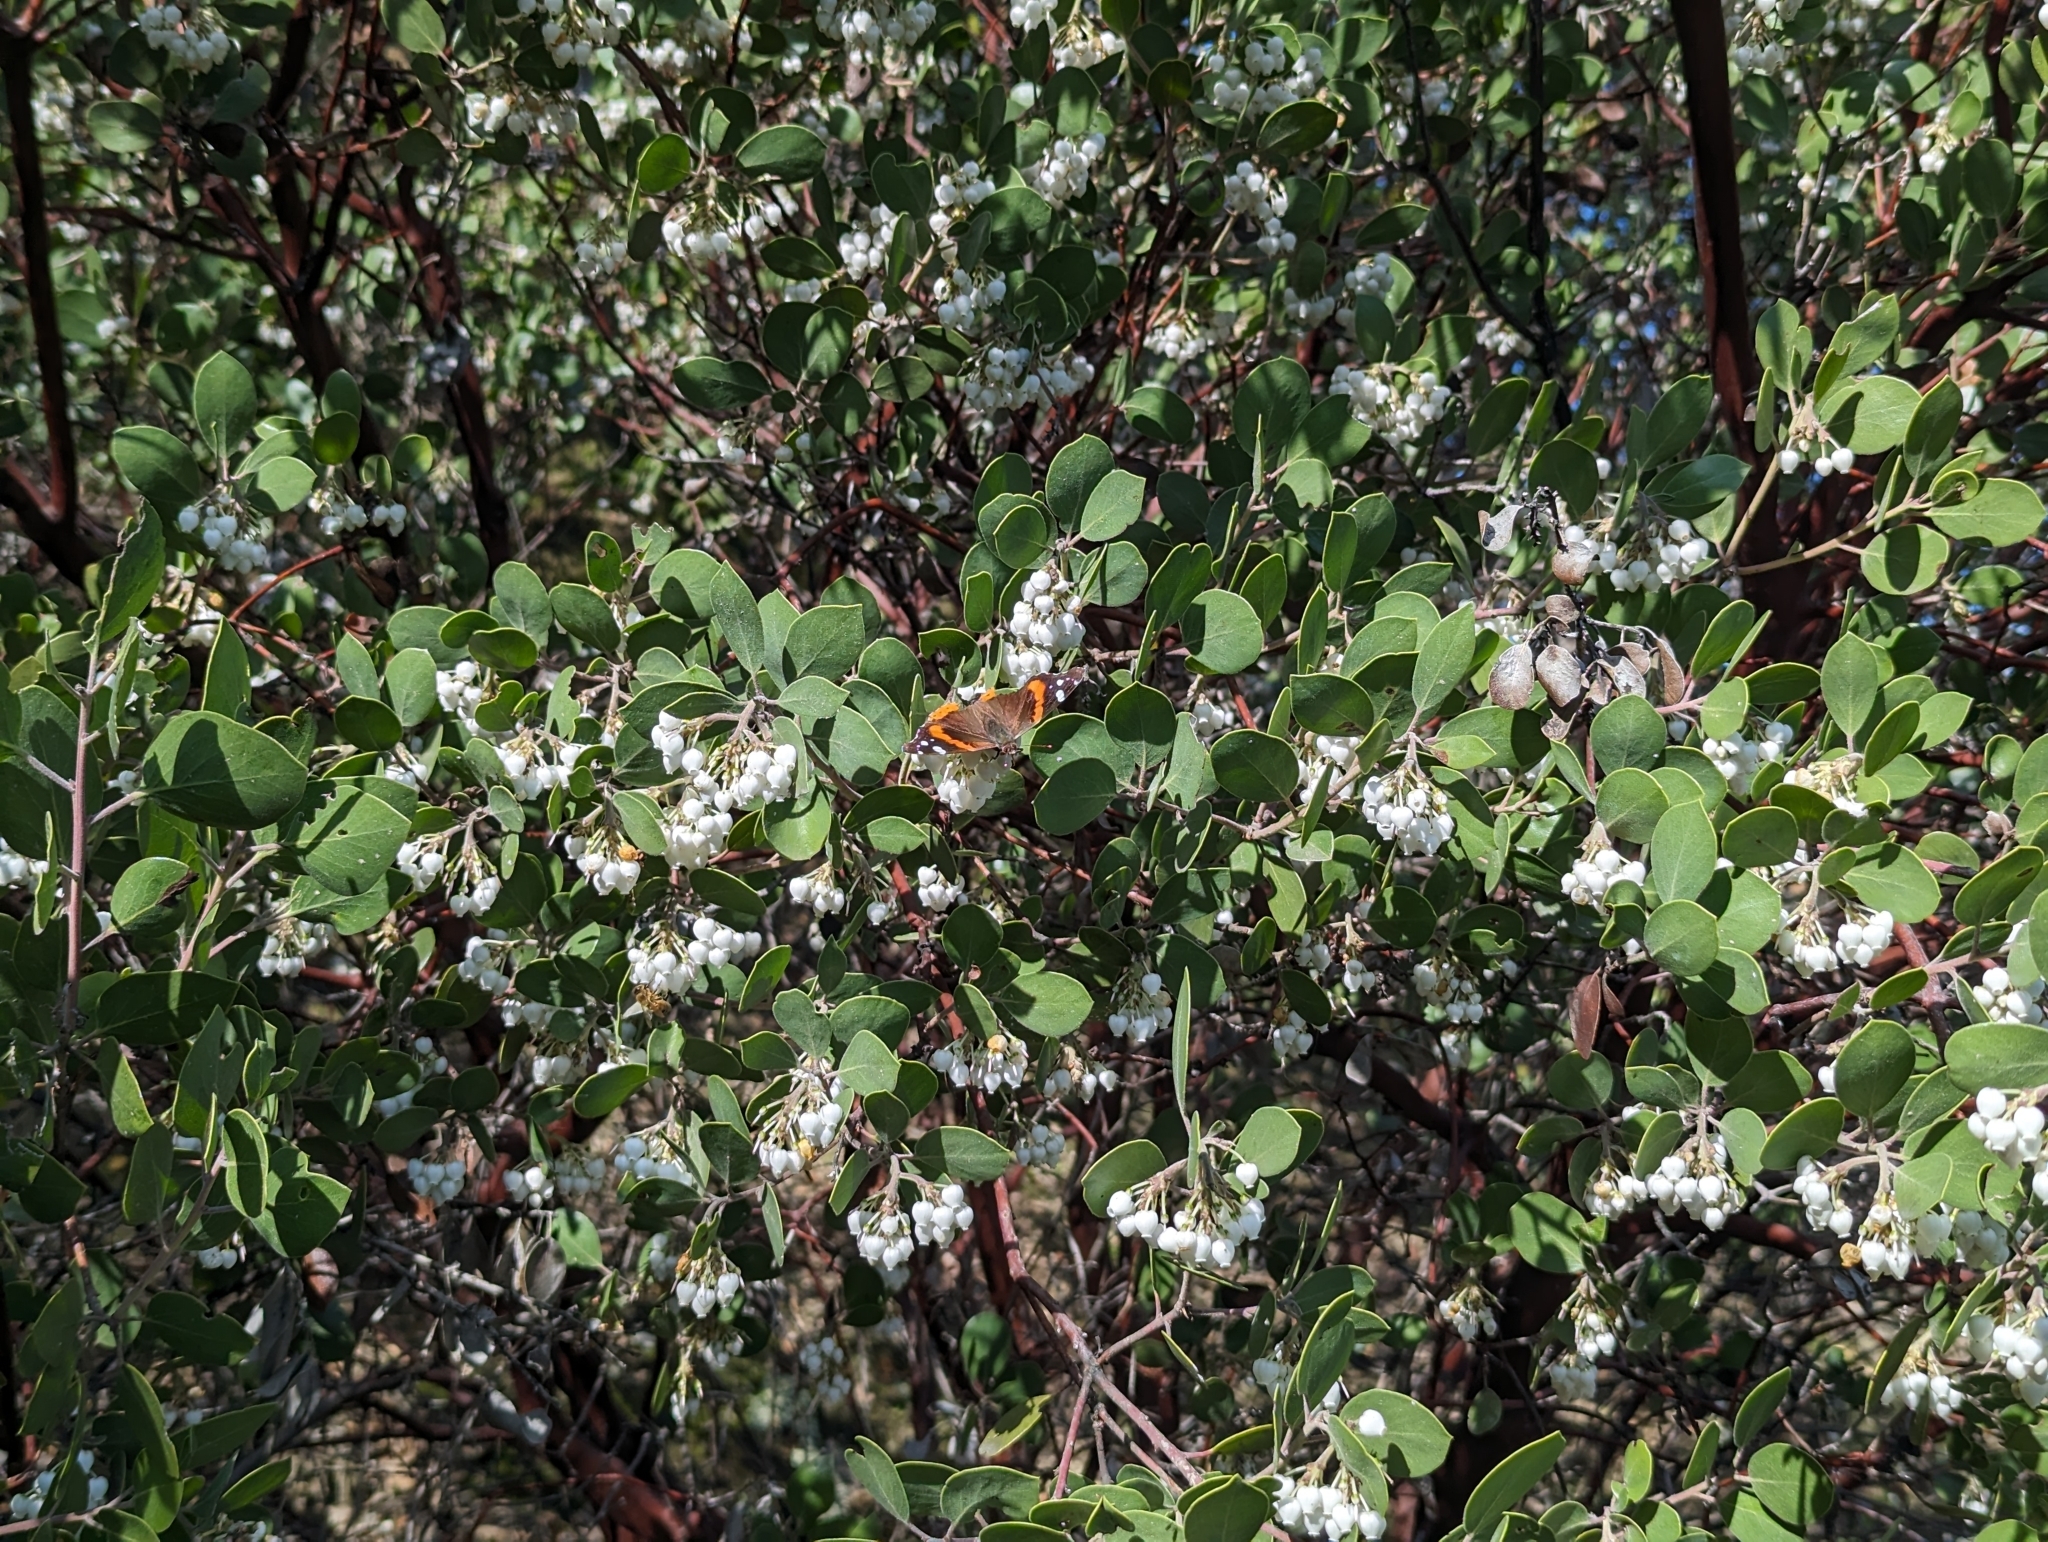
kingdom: Animalia
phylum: Arthropoda
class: Insecta
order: Lepidoptera
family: Nymphalidae
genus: Vanessa
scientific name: Vanessa atalanta
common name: Red admiral
